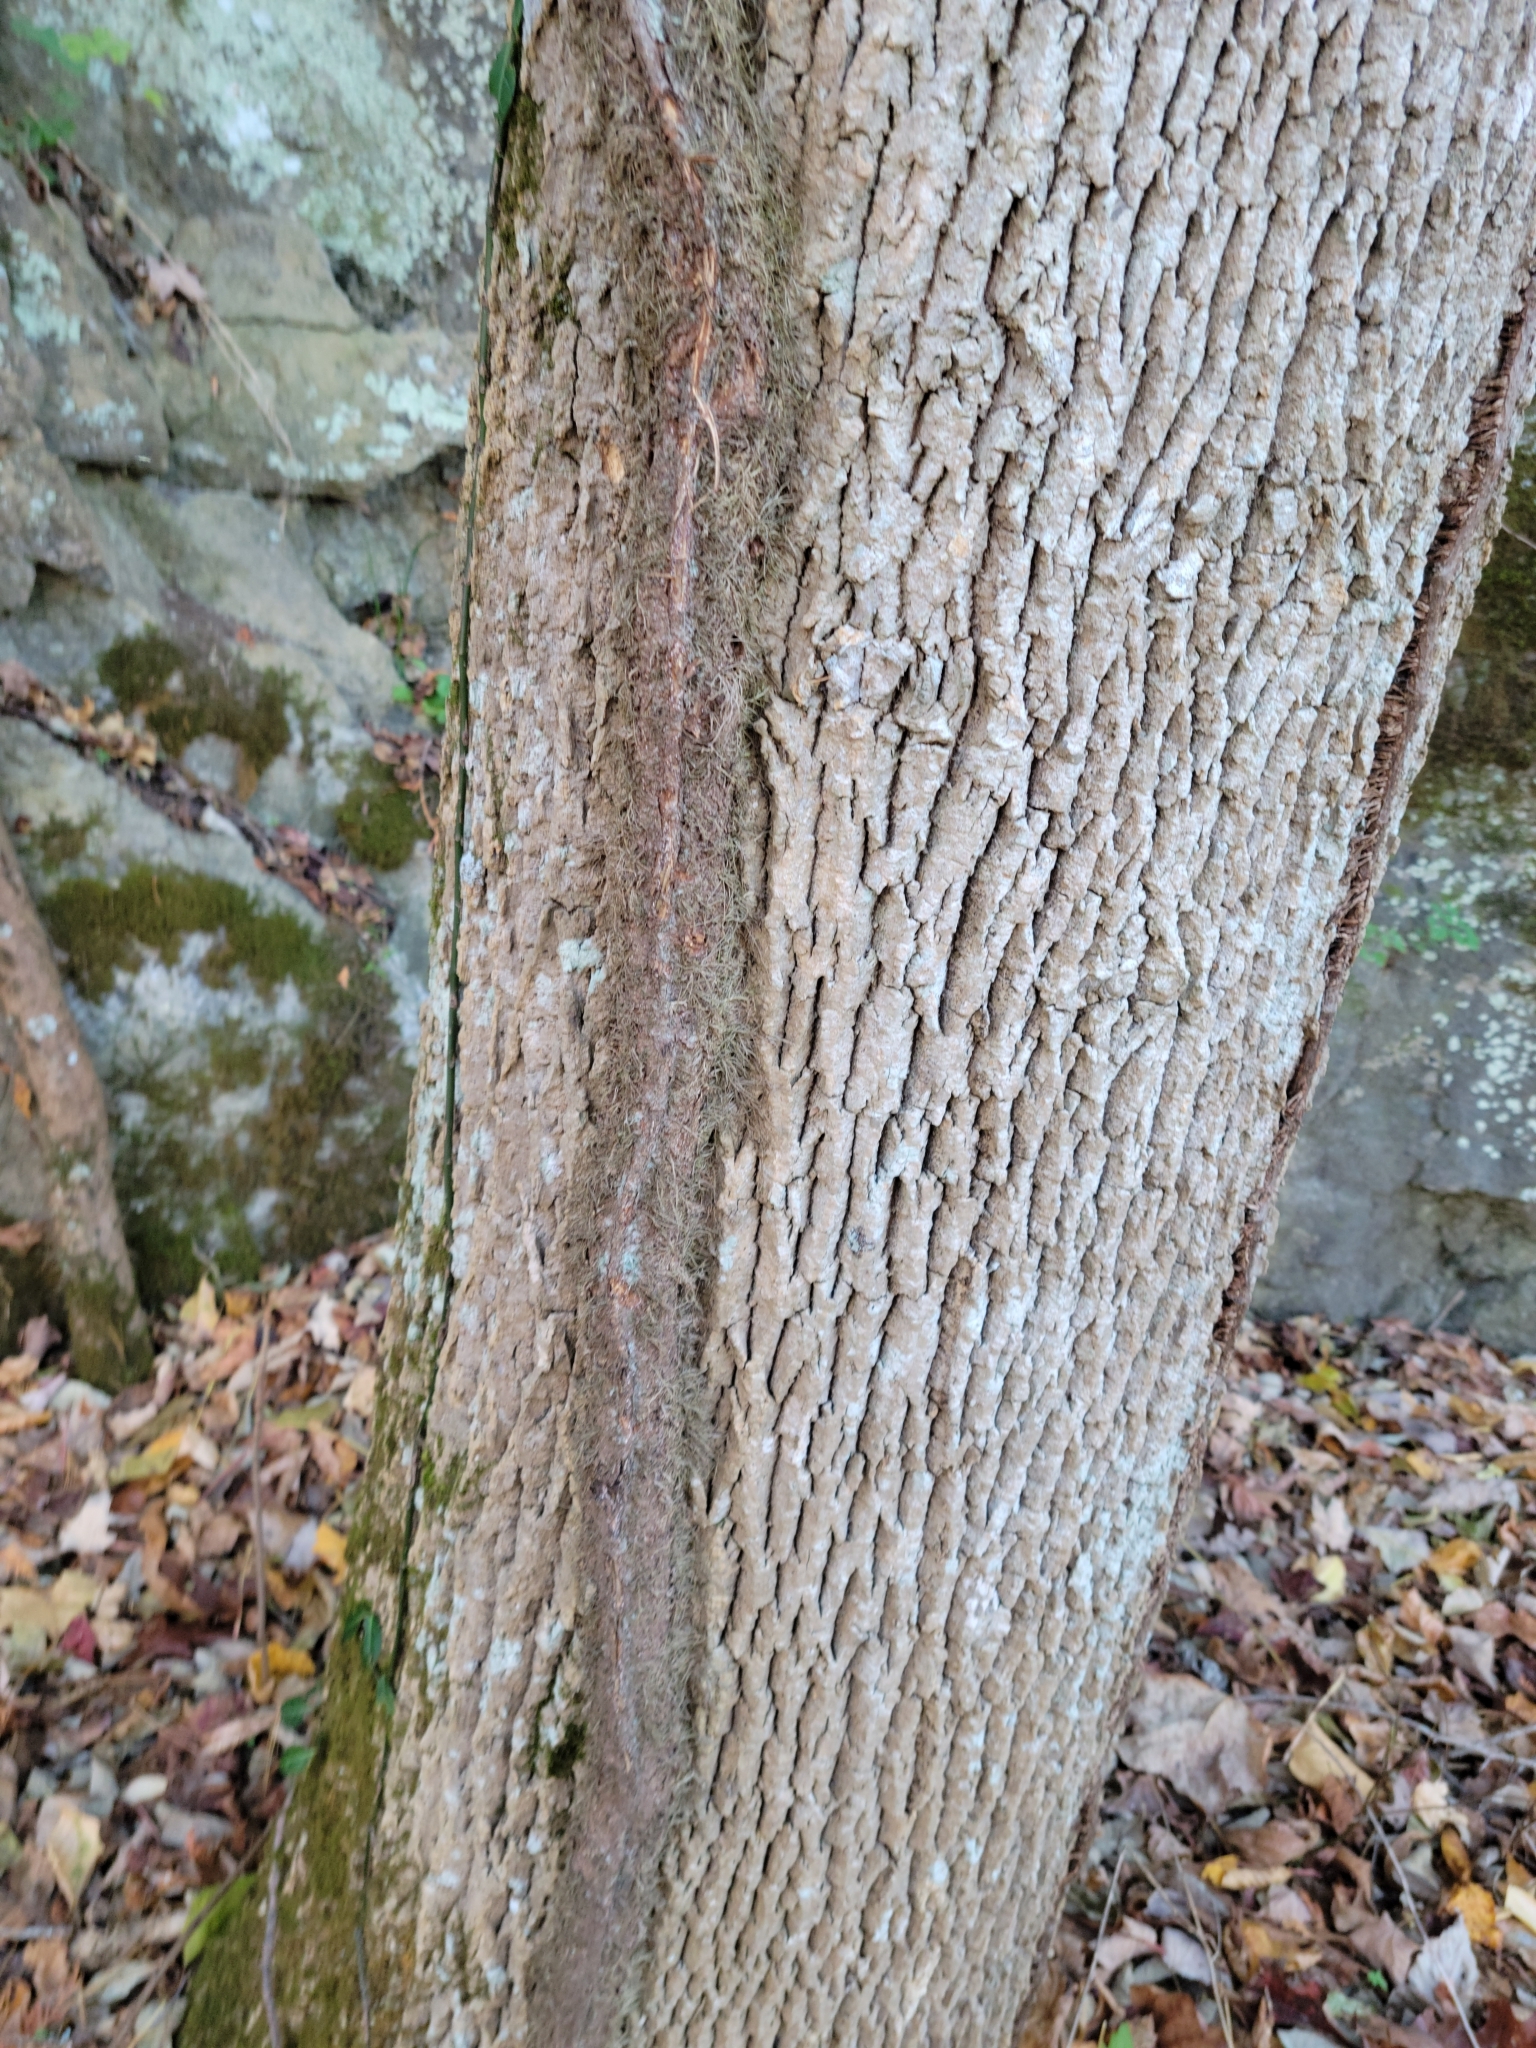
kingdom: Plantae
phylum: Tracheophyta
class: Magnoliopsida
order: Sapindales
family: Anacardiaceae
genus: Toxicodendron
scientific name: Toxicodendron radicans
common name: Poison ivy
